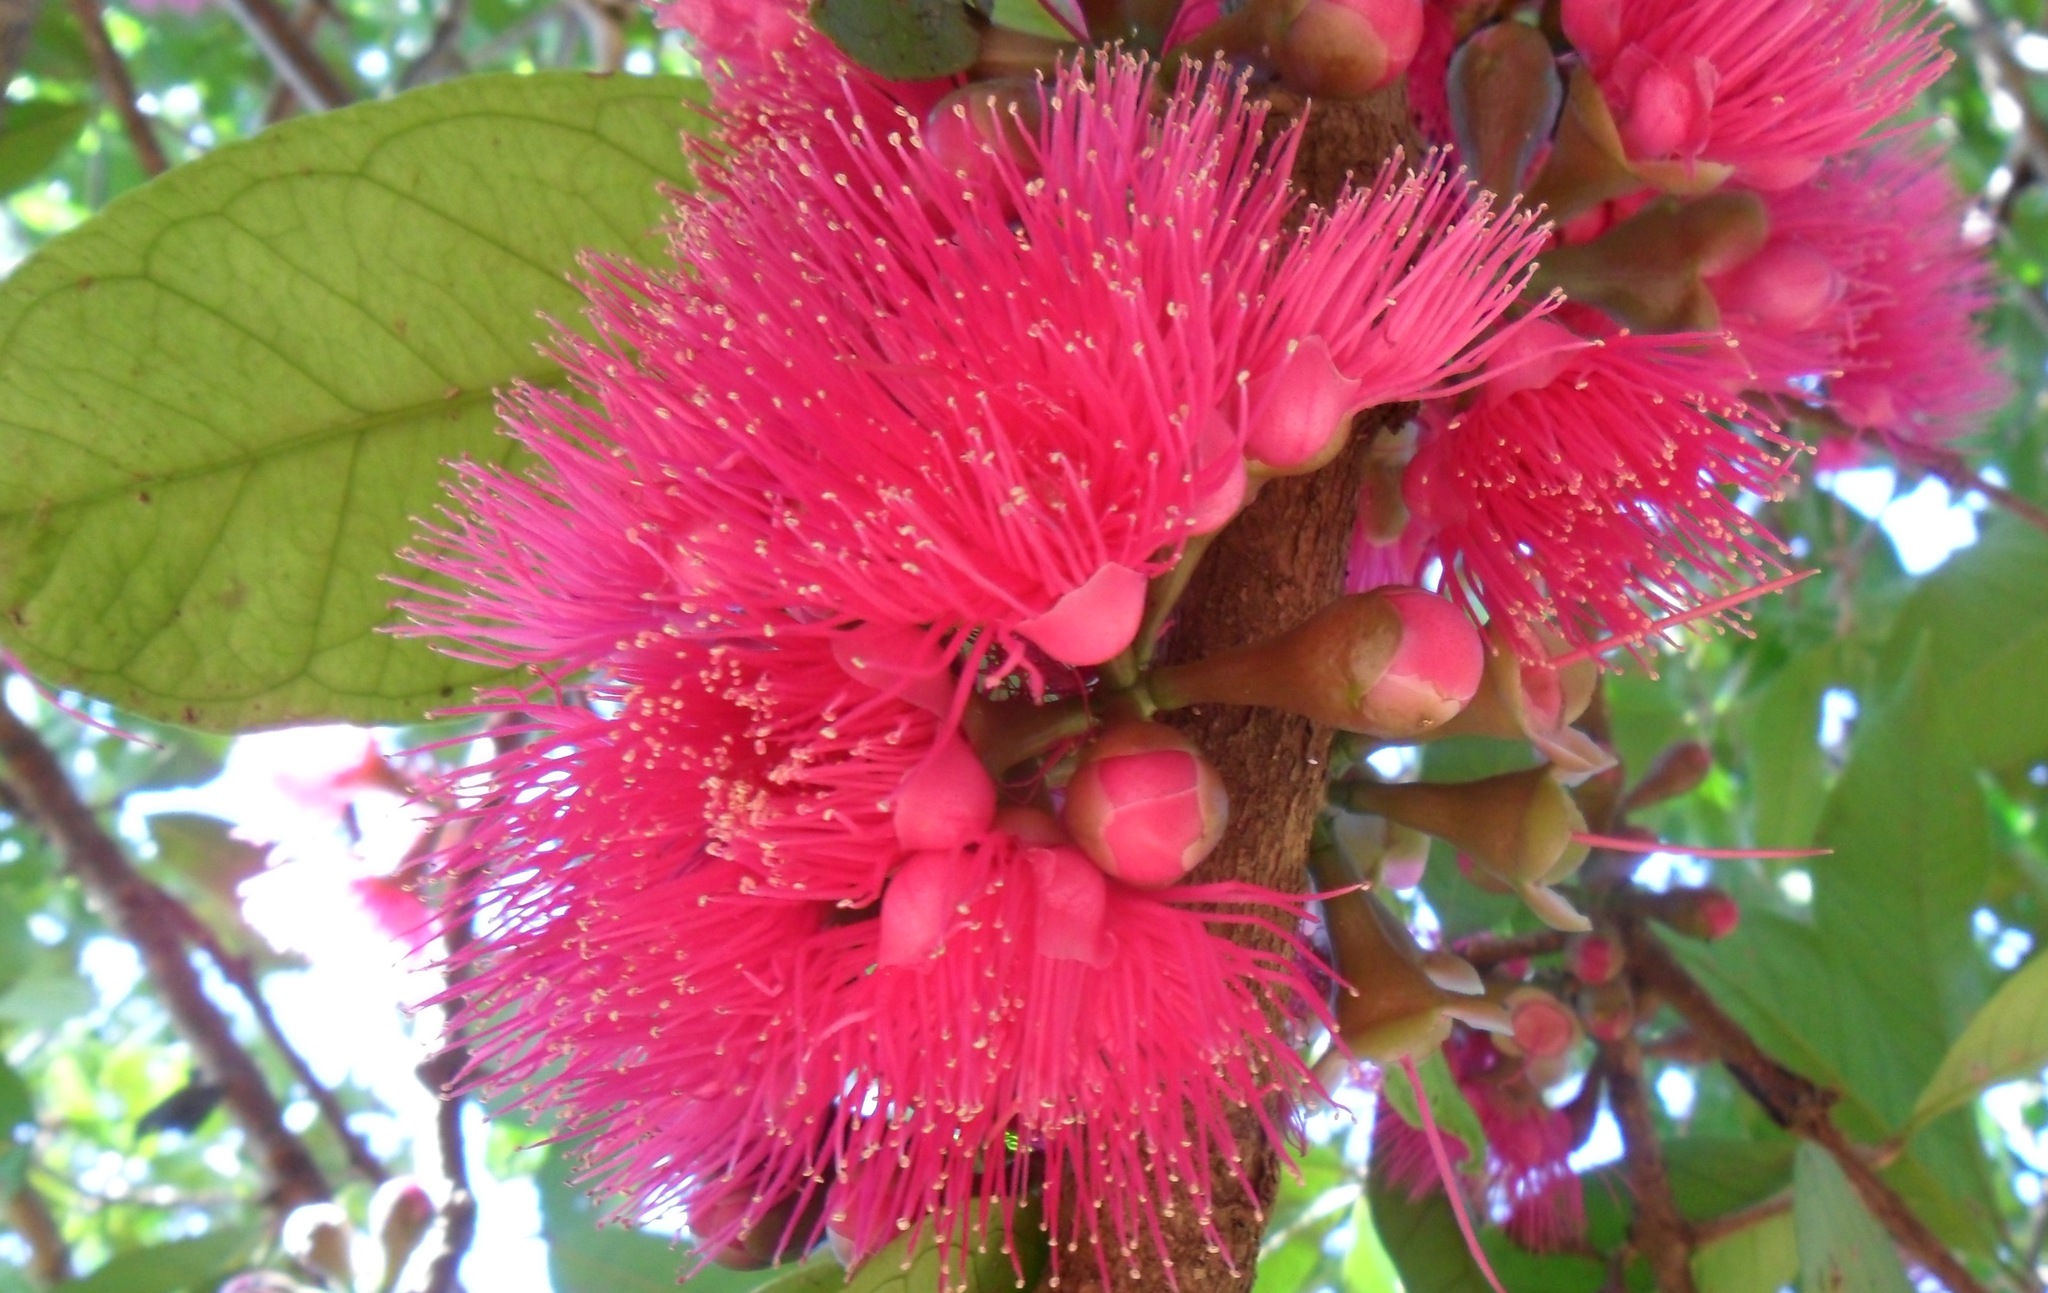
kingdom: Plantae
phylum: Tracheophyta
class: Magnoliopsida
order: Myrtales
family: Myrtaceae
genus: Syzygium
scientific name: Syzygium malaccense
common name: Malaysian apple
